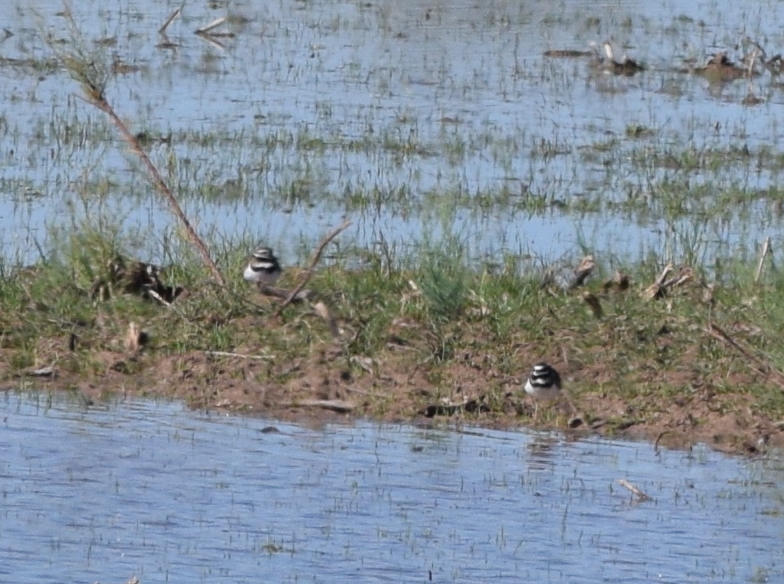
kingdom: Animalia
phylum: Chordata
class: Aves
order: Charadriiformes
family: Charadriidae
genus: Charadrius
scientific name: Charadrius vociferus
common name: Killdeer
